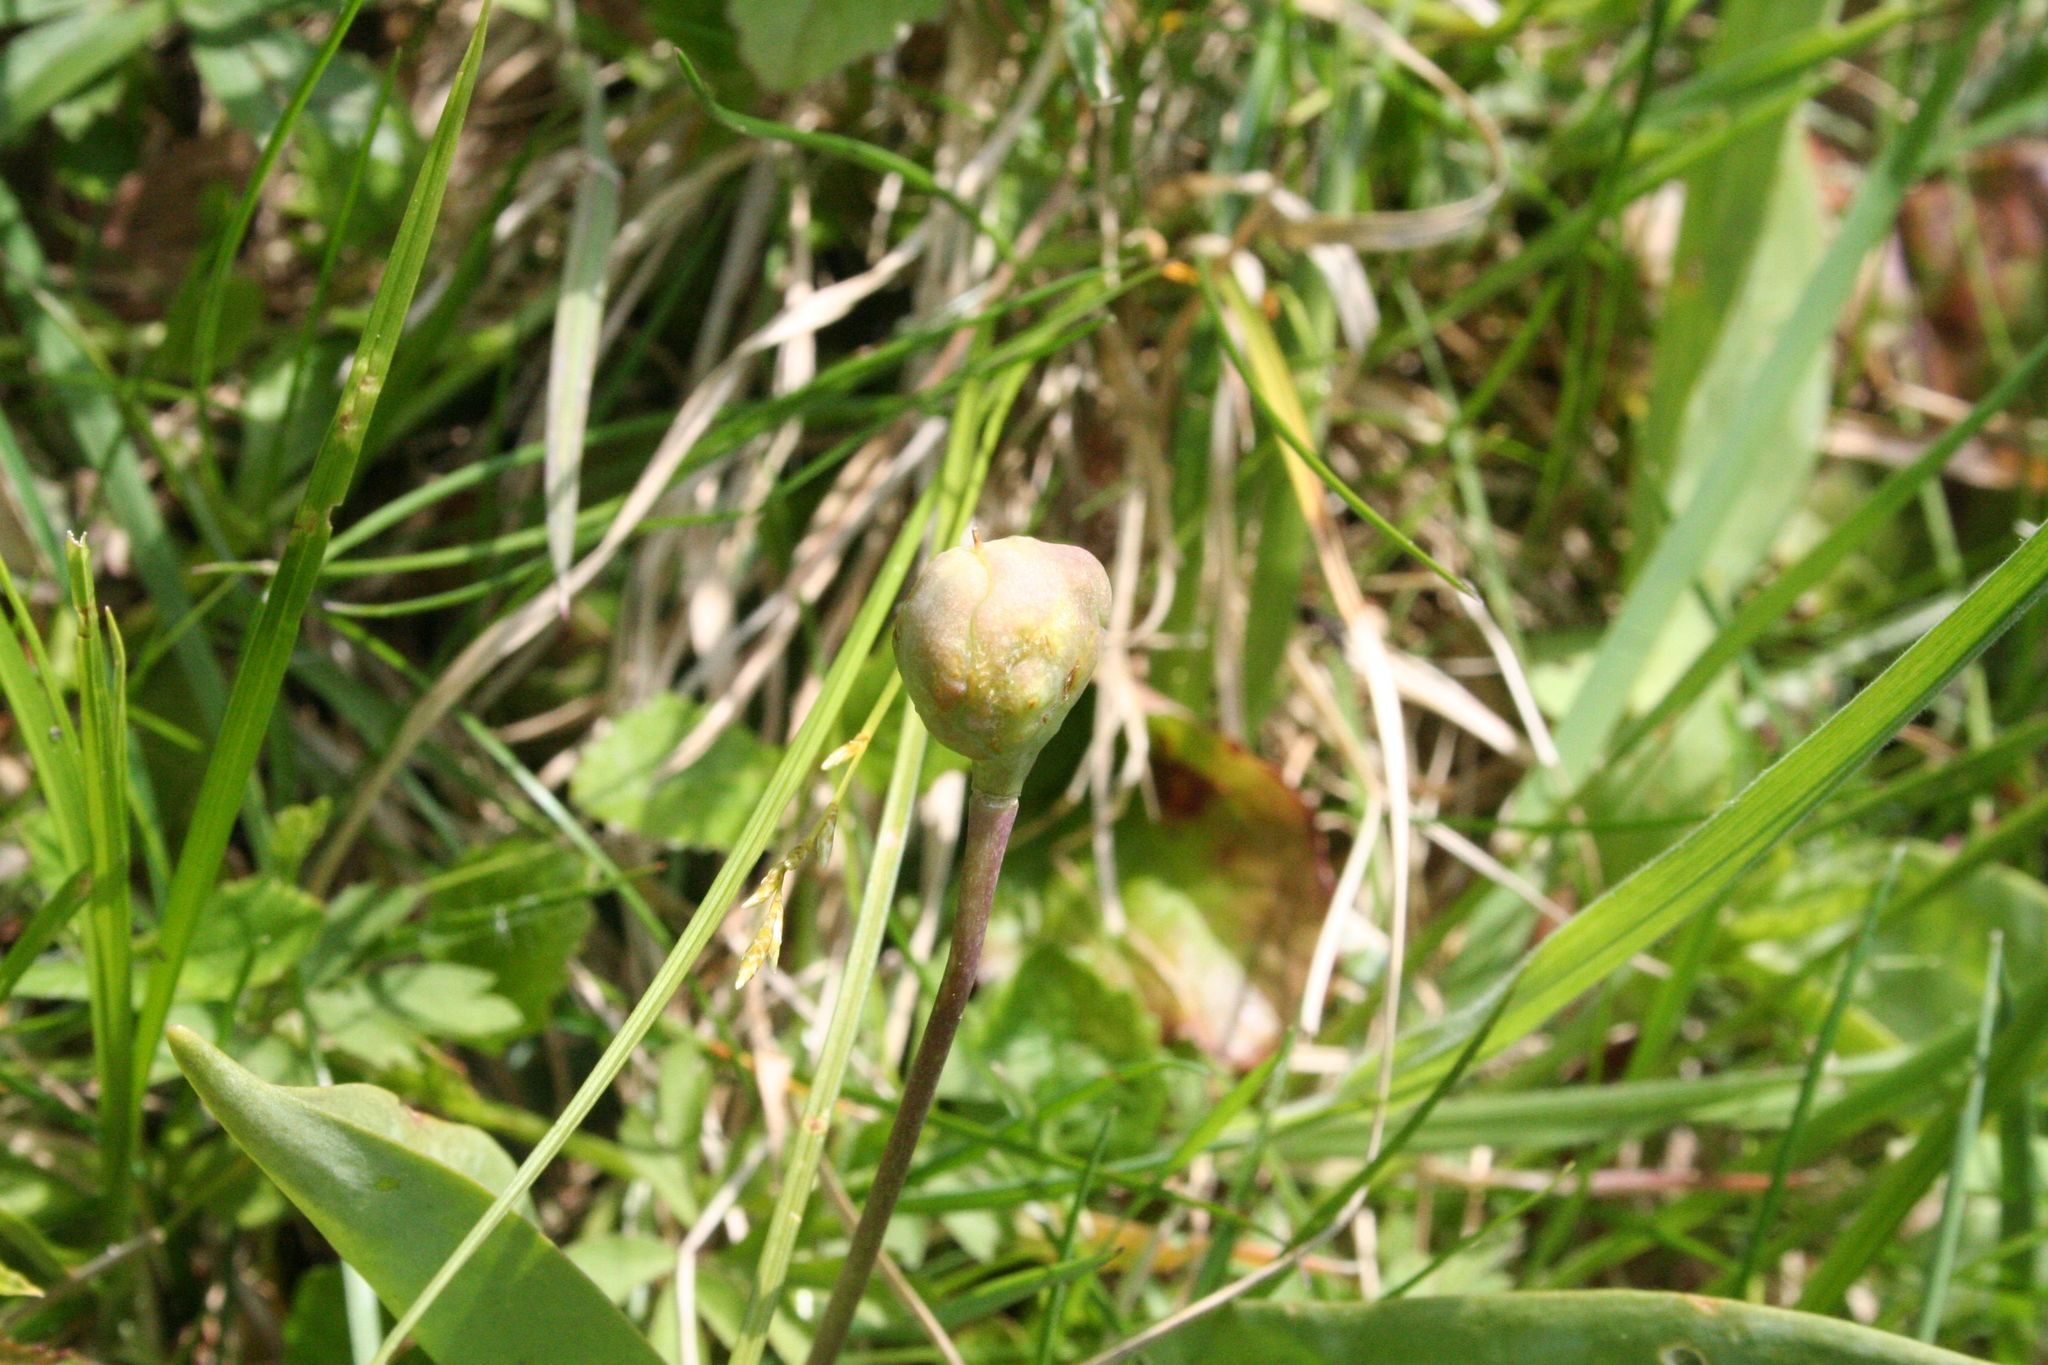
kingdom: Plantae
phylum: Tracheophyta
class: Liliopsida
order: Liliales
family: Liliaceae
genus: Erythronium
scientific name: Erythronium dens-canis
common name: Dog's-tooth-violet
